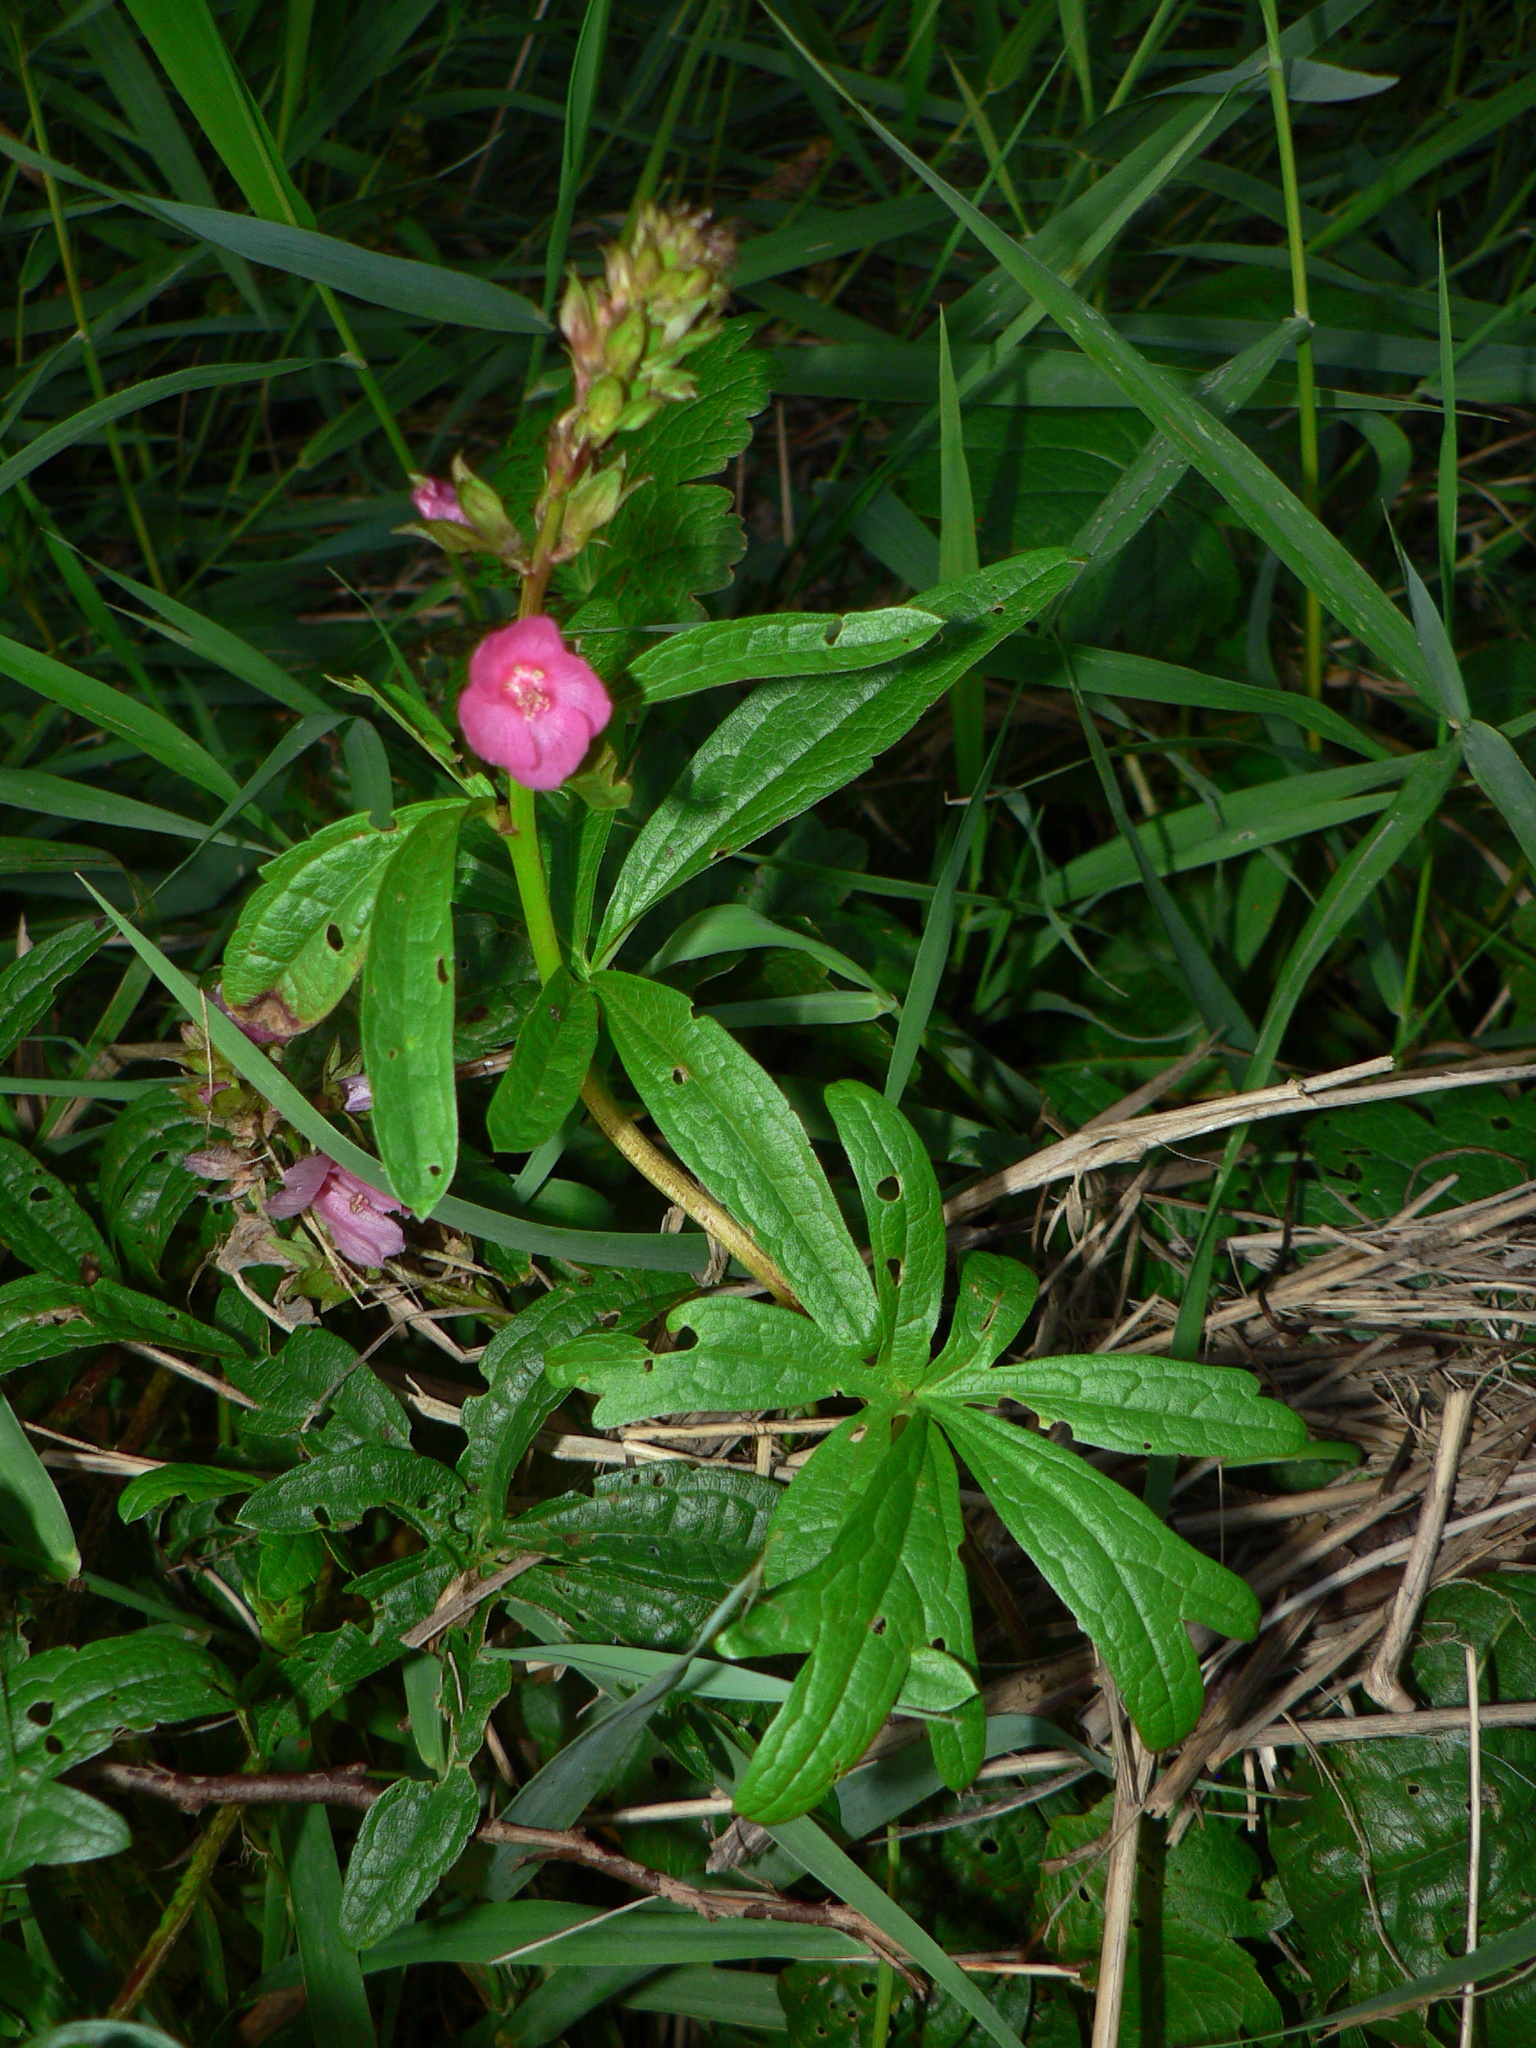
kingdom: Plantae
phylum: Tracheophyta
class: Magnoliopsida
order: Malvales
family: Malvaceae
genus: Sidalcea
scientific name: Sidalcea hendersonii
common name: Mallow
